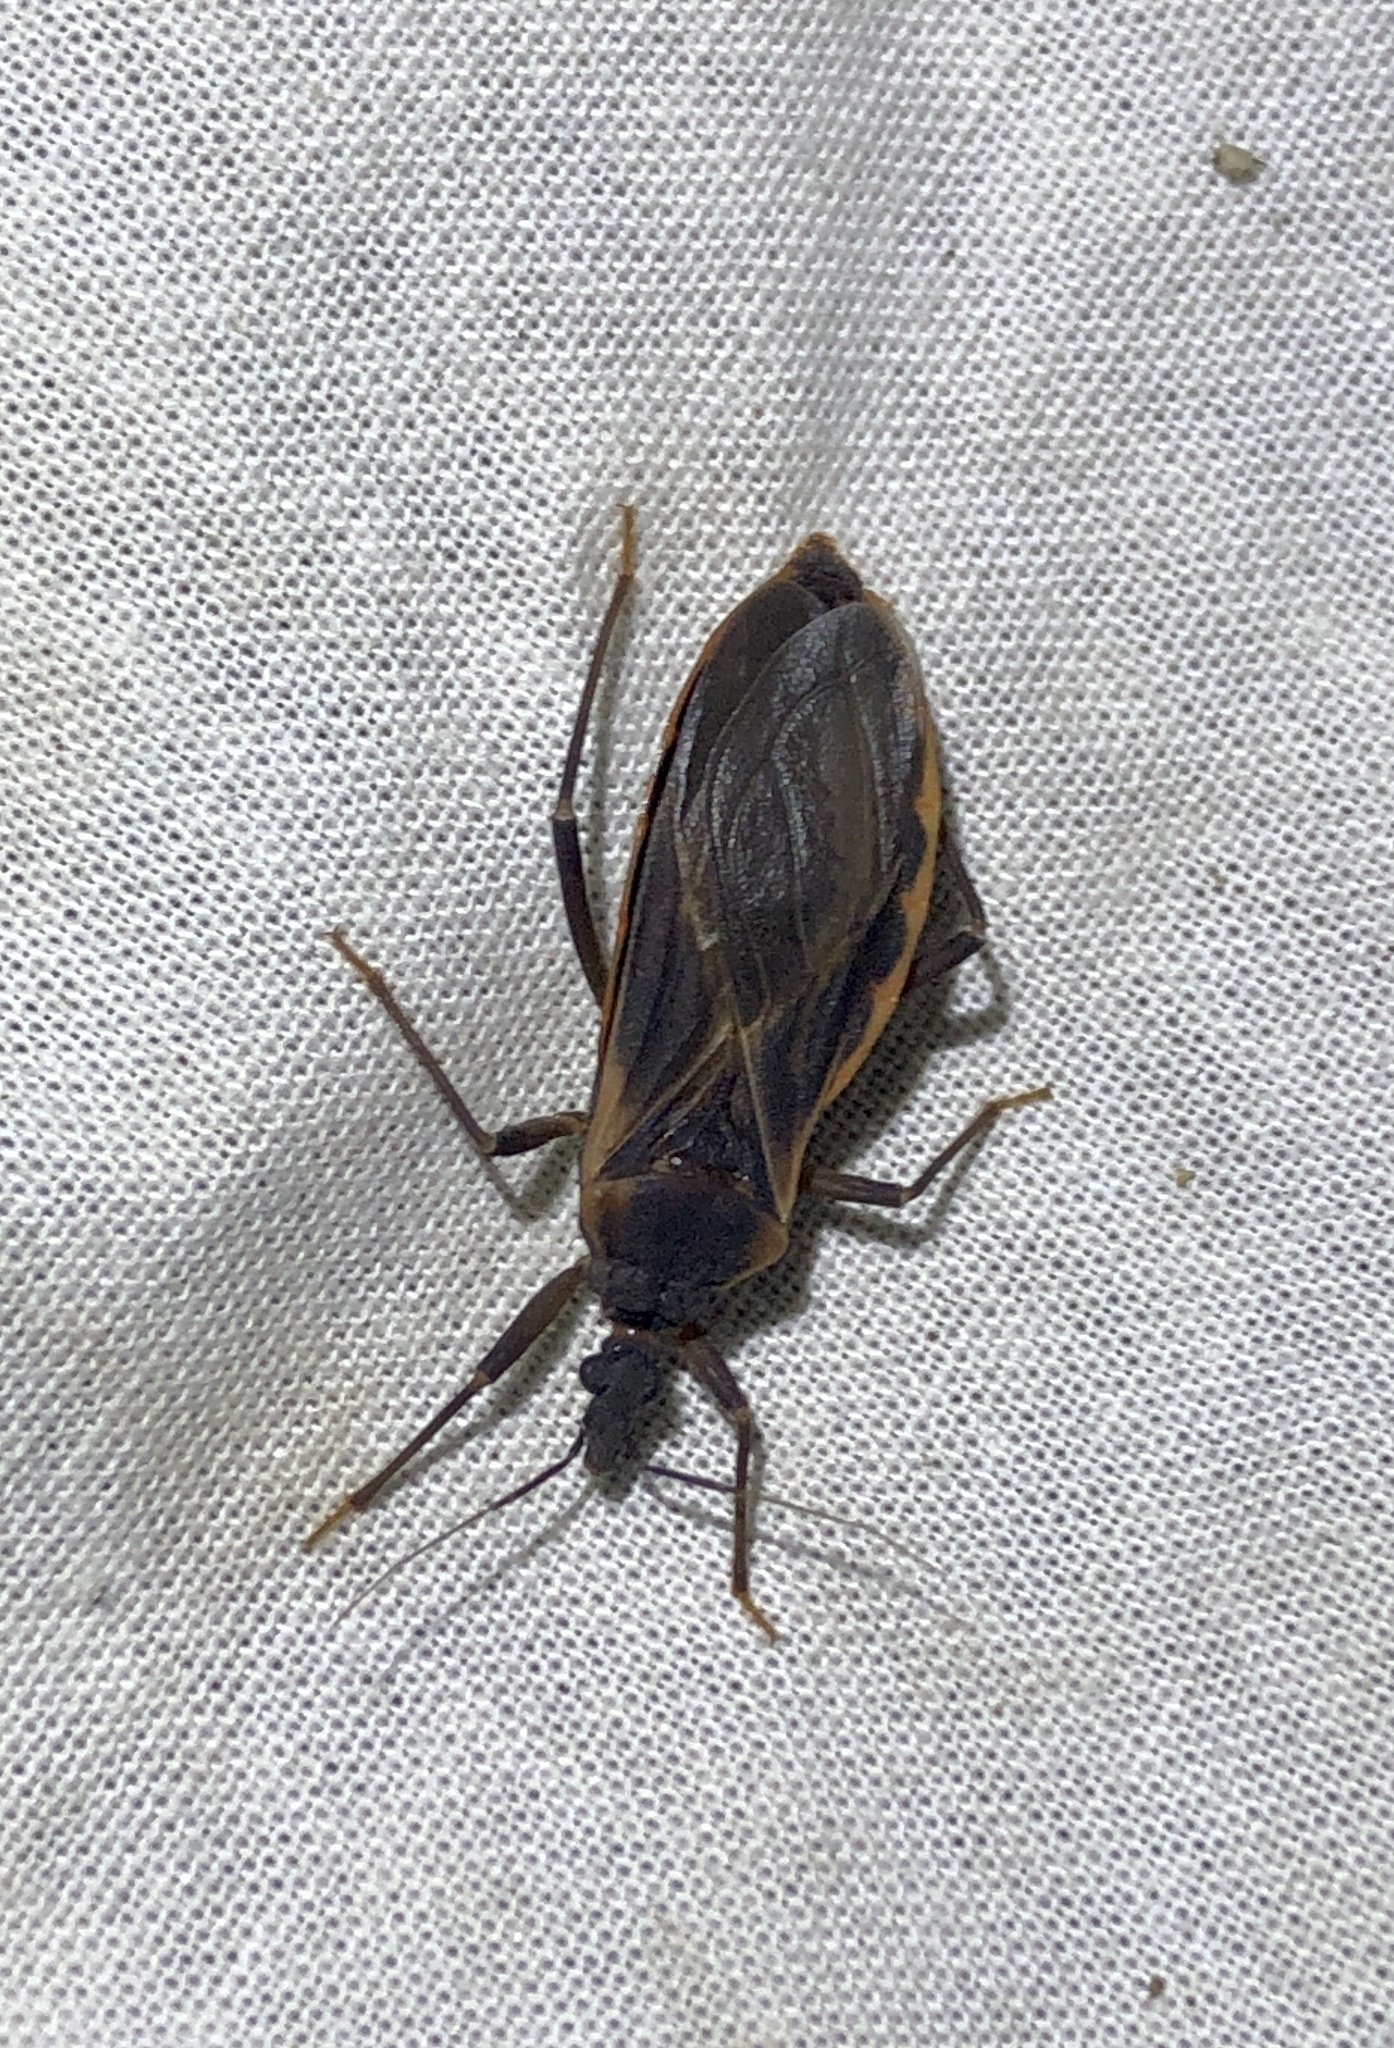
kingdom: Animalia
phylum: Arthropoda
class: Insecta
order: Hemiptera
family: Reduviidae
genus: Triatoma
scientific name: Triatoma rubida
